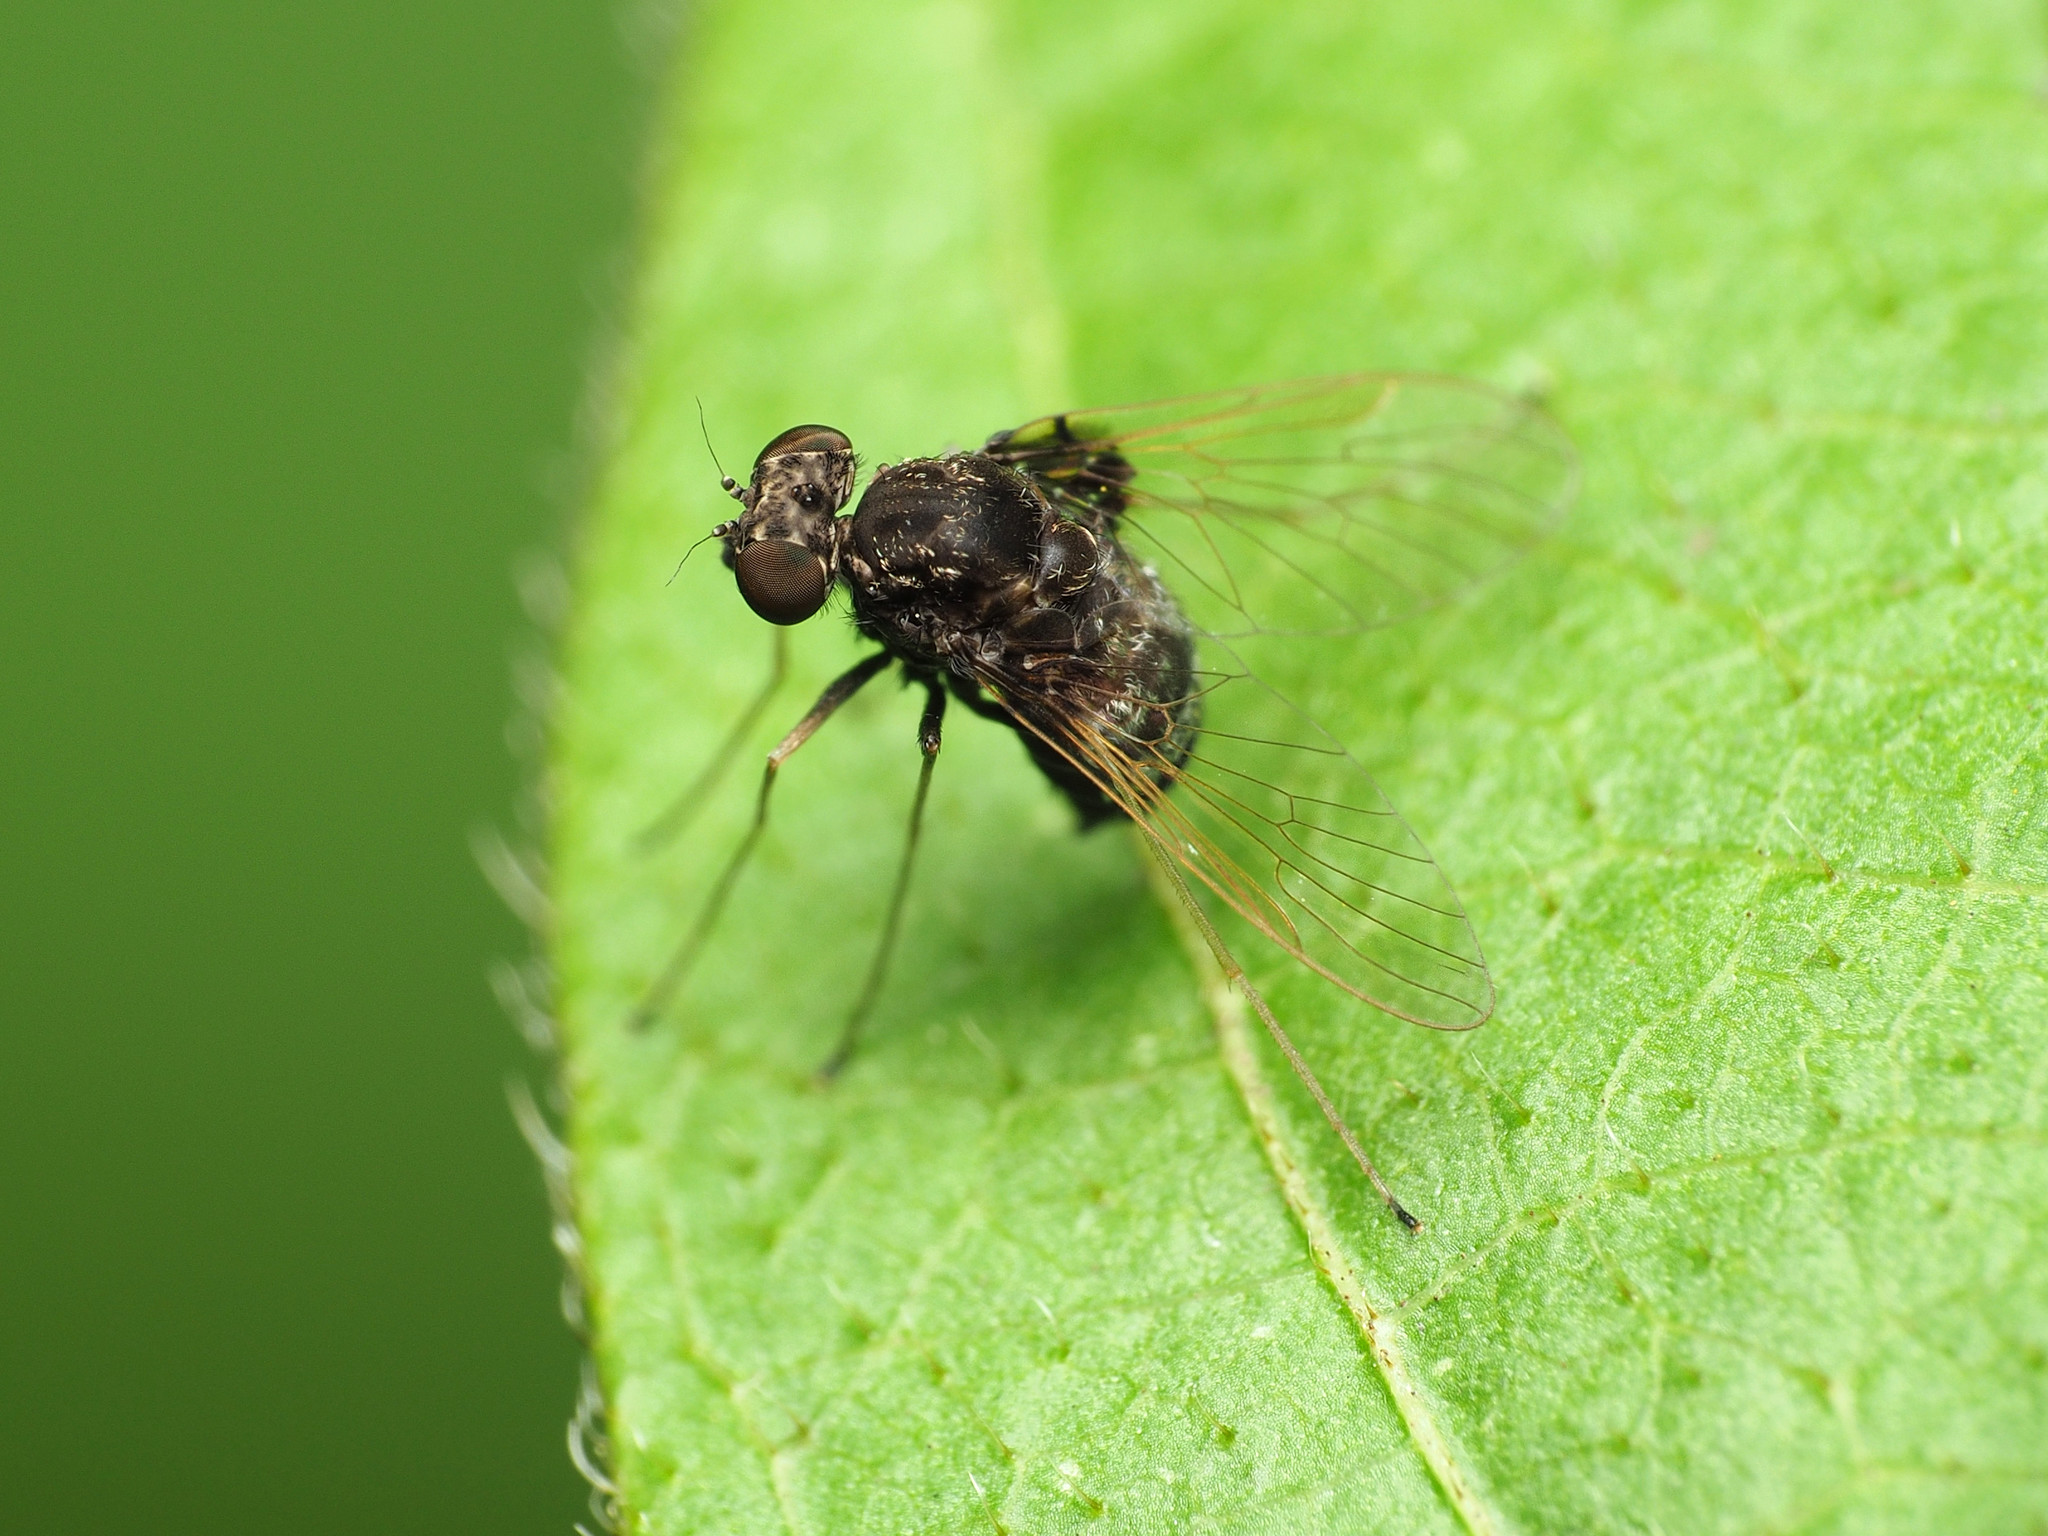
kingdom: Animalia
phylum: Arthropoda
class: Insecta
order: Diptera
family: Rhagionidae
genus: Chrysopilus
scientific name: Chrysopilus basilaris
